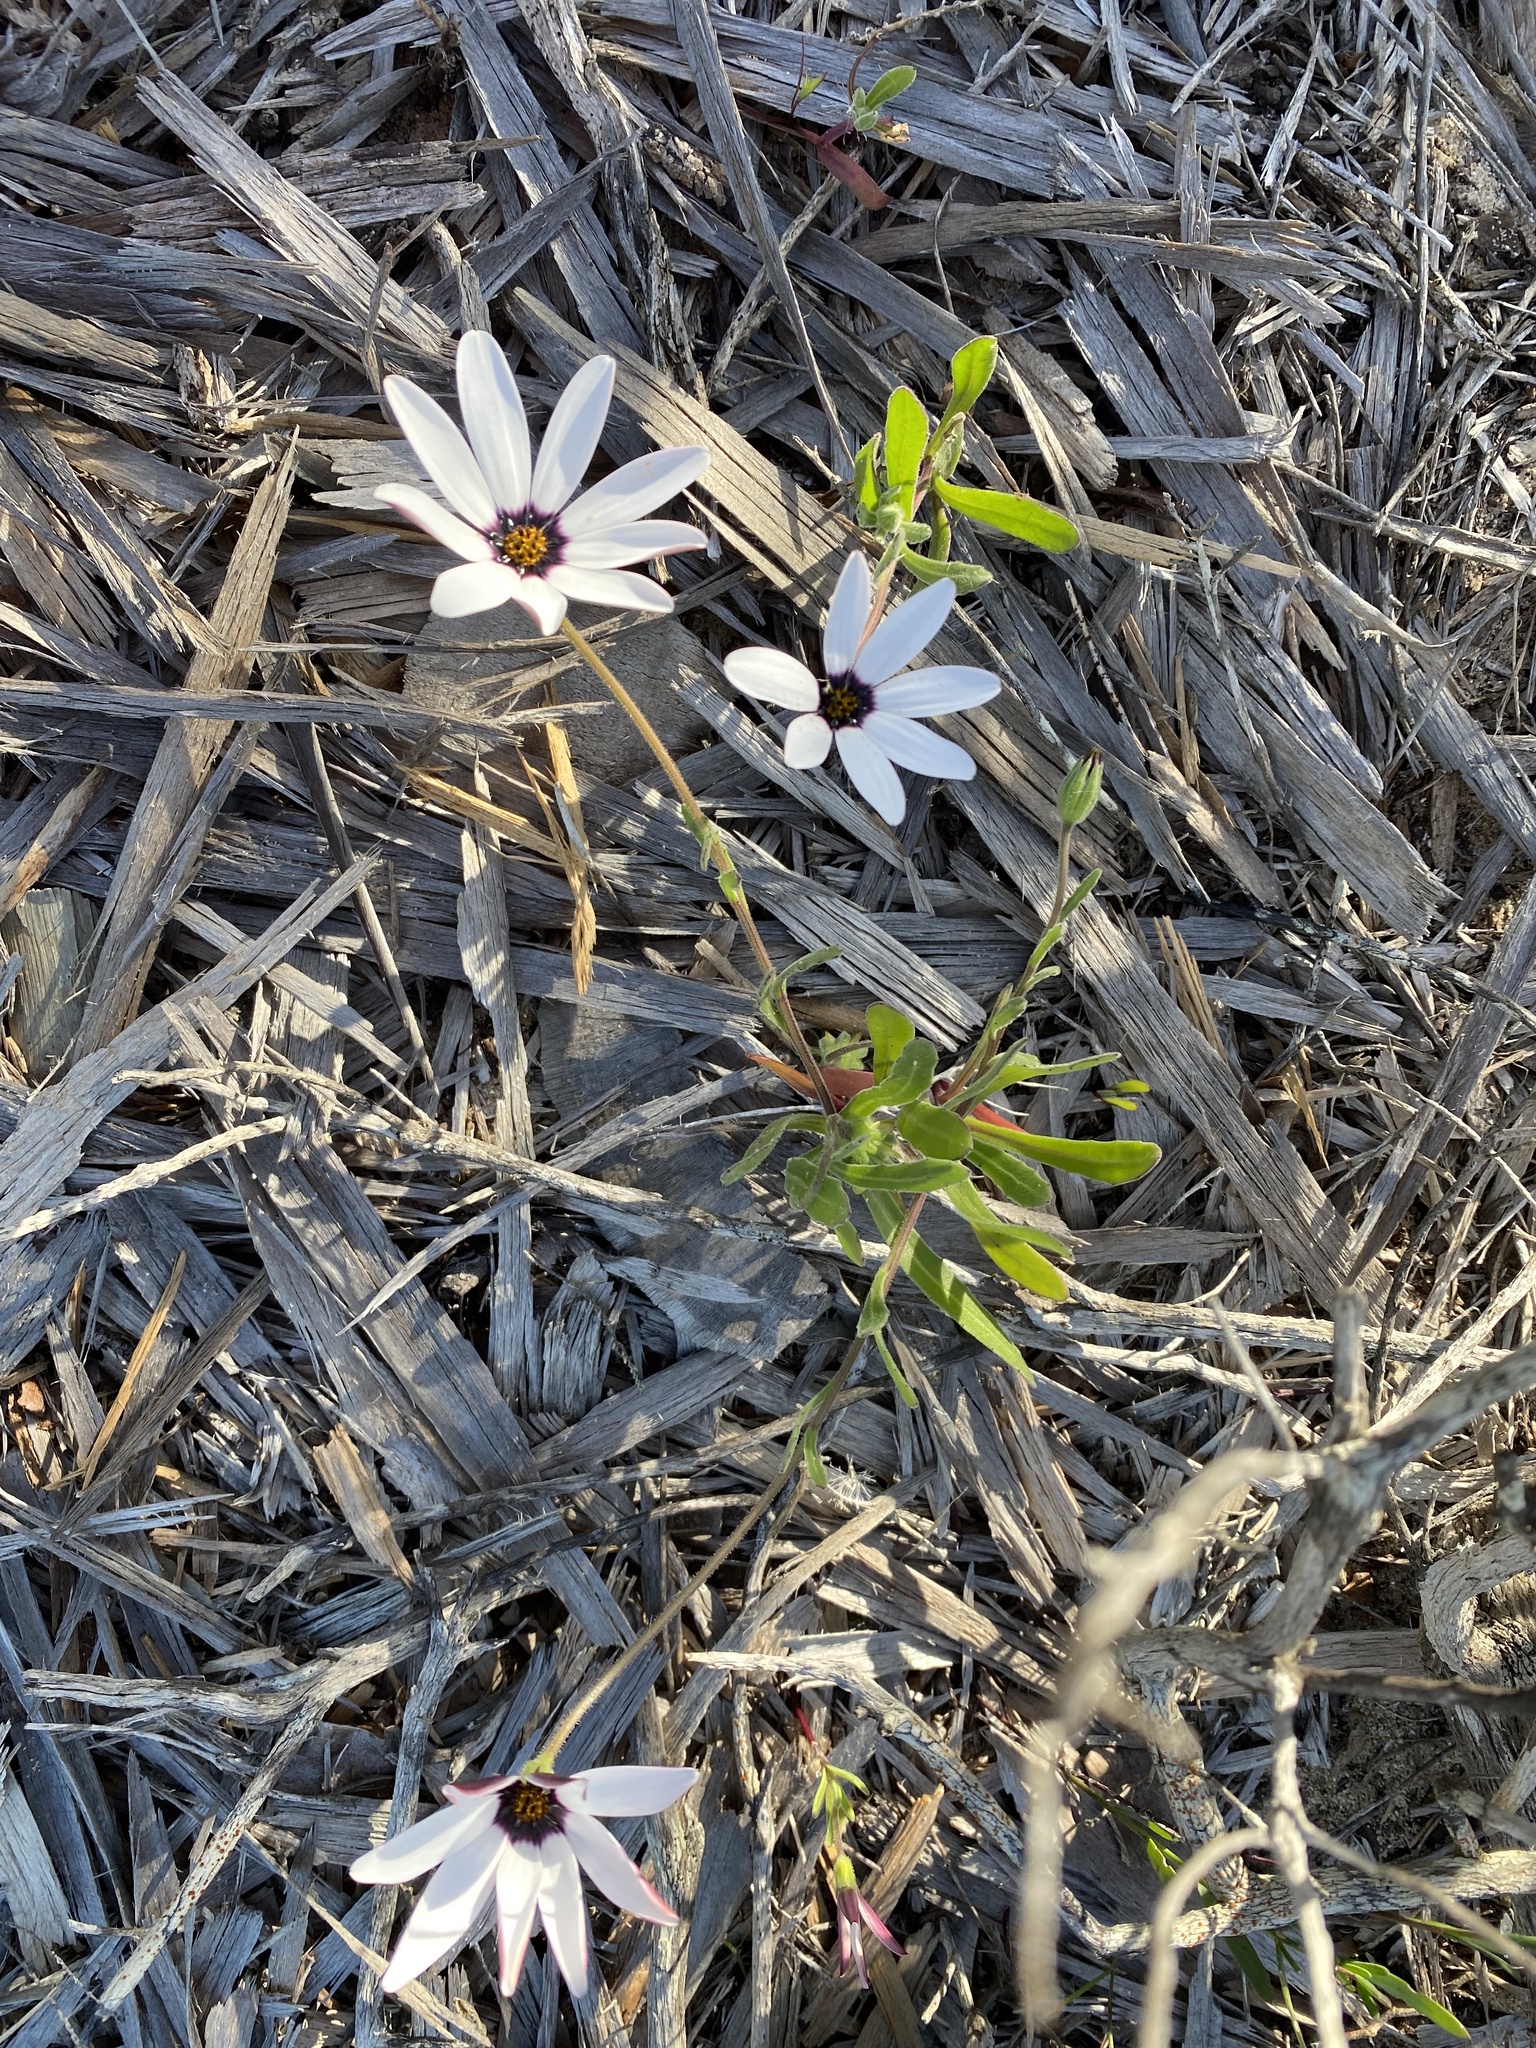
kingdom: Plantae
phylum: Tracheophyta
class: Magnoliopsida
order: Asterales
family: Asteraceae
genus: Dimorphotheca
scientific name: Dimorphotheca nudicaulis
